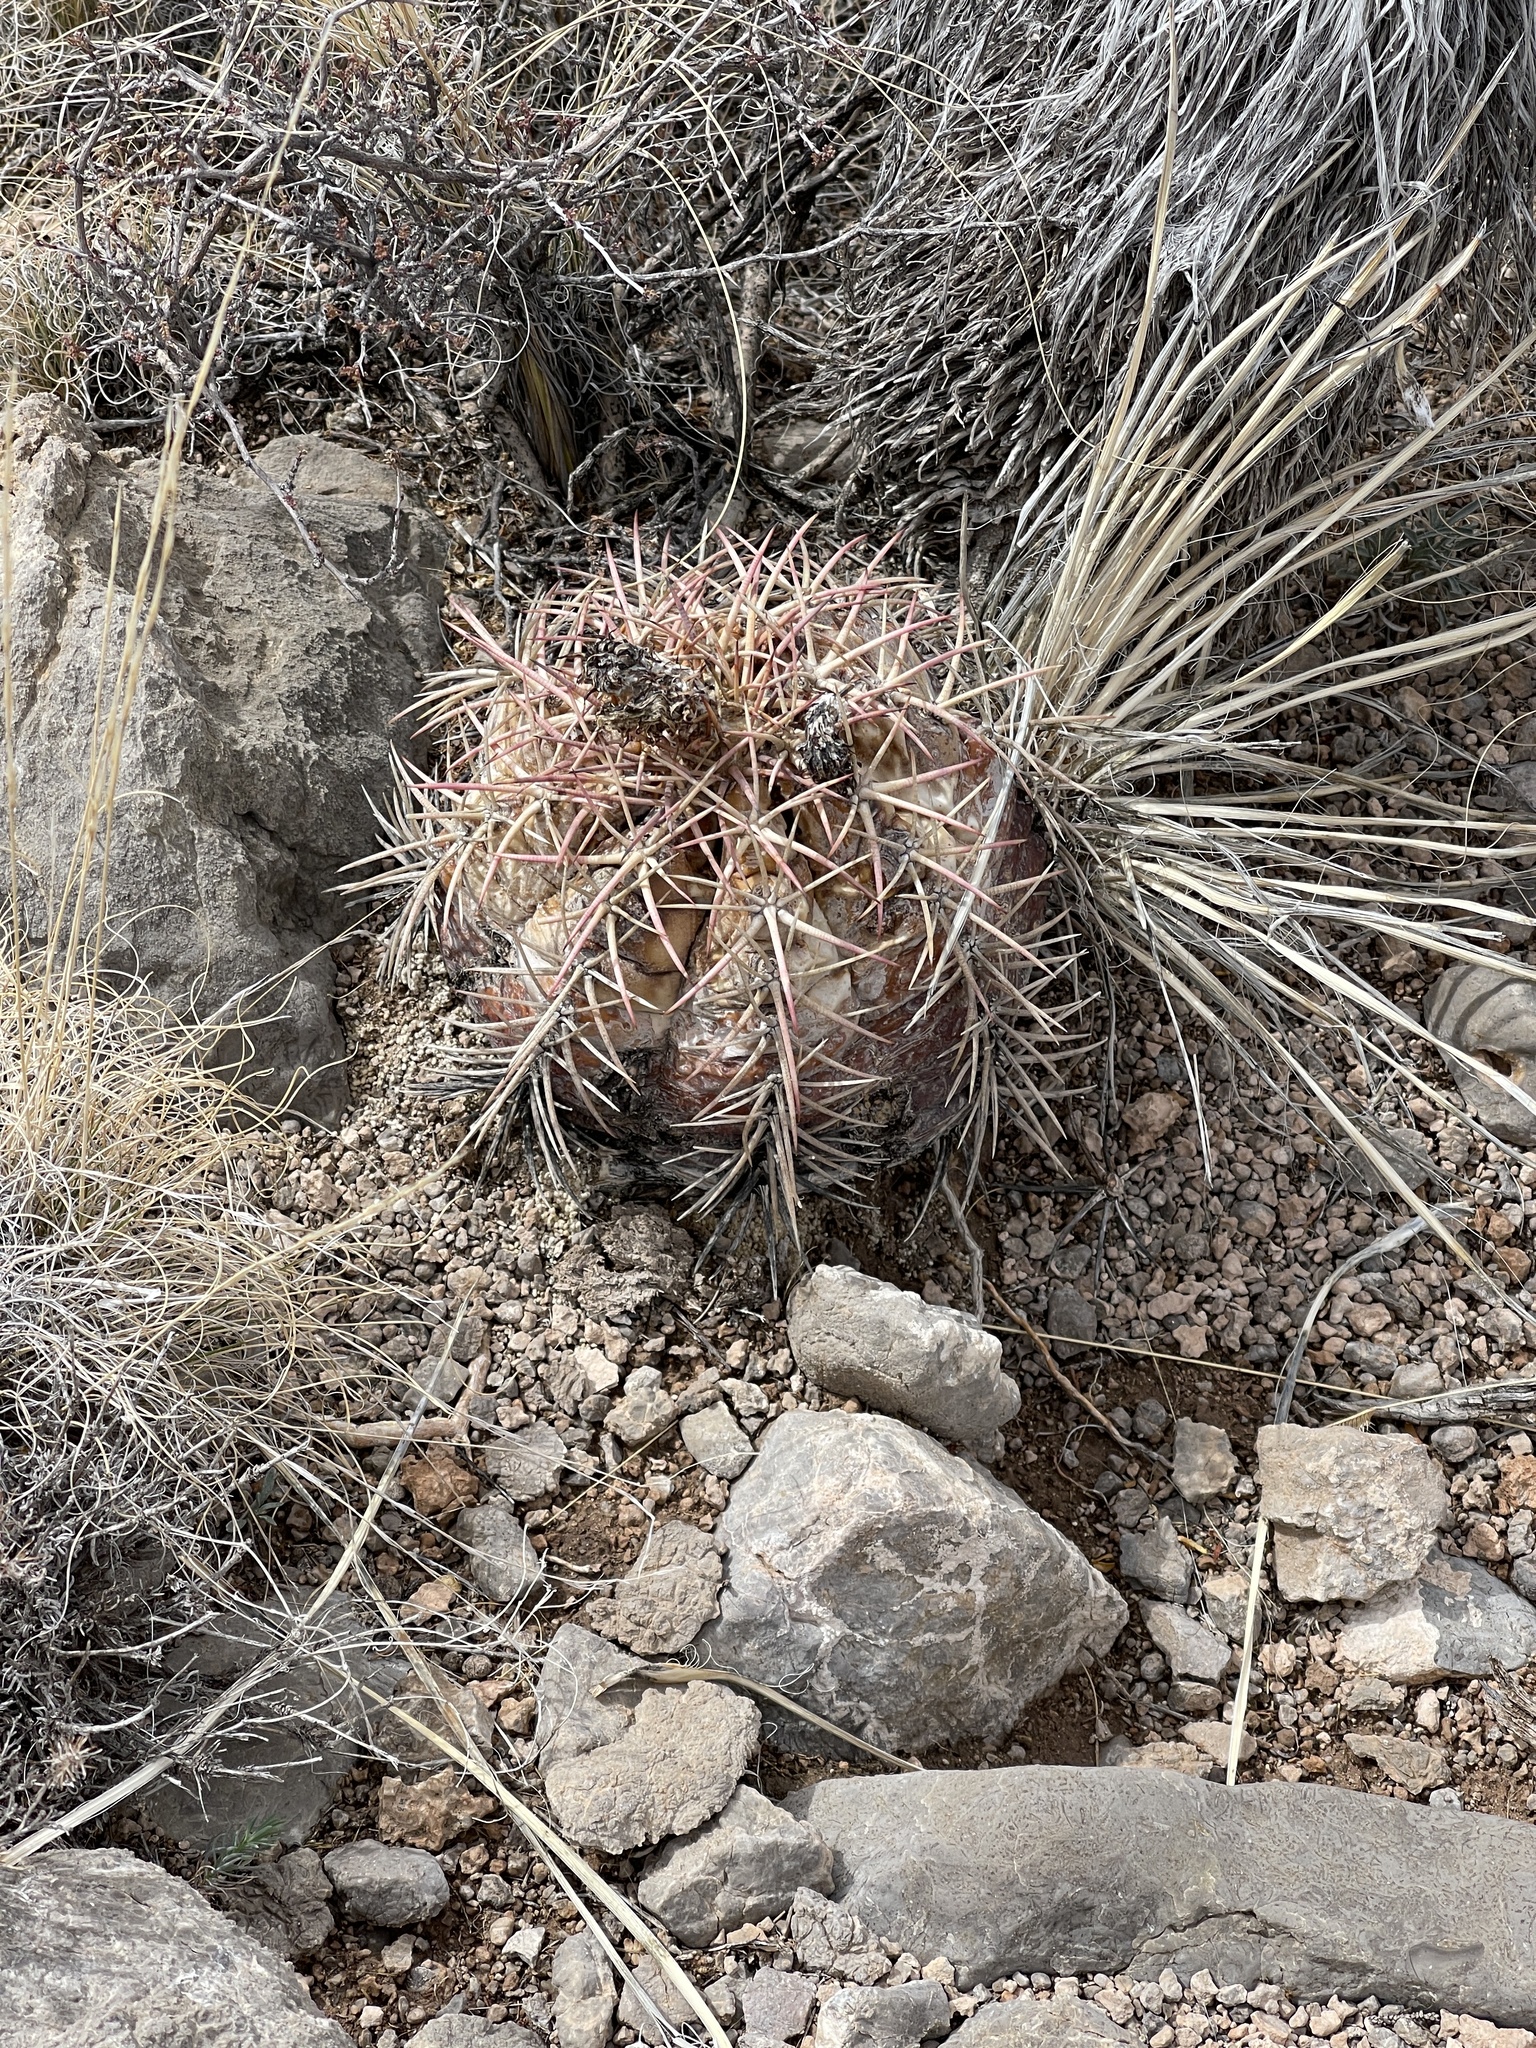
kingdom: Plantae
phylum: Tracheophyta
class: Magnoliopsida
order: Caryophyllales
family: Cactaceae
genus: Echinocactus
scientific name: Echinocactus horizonthalonius
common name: Devilshead
